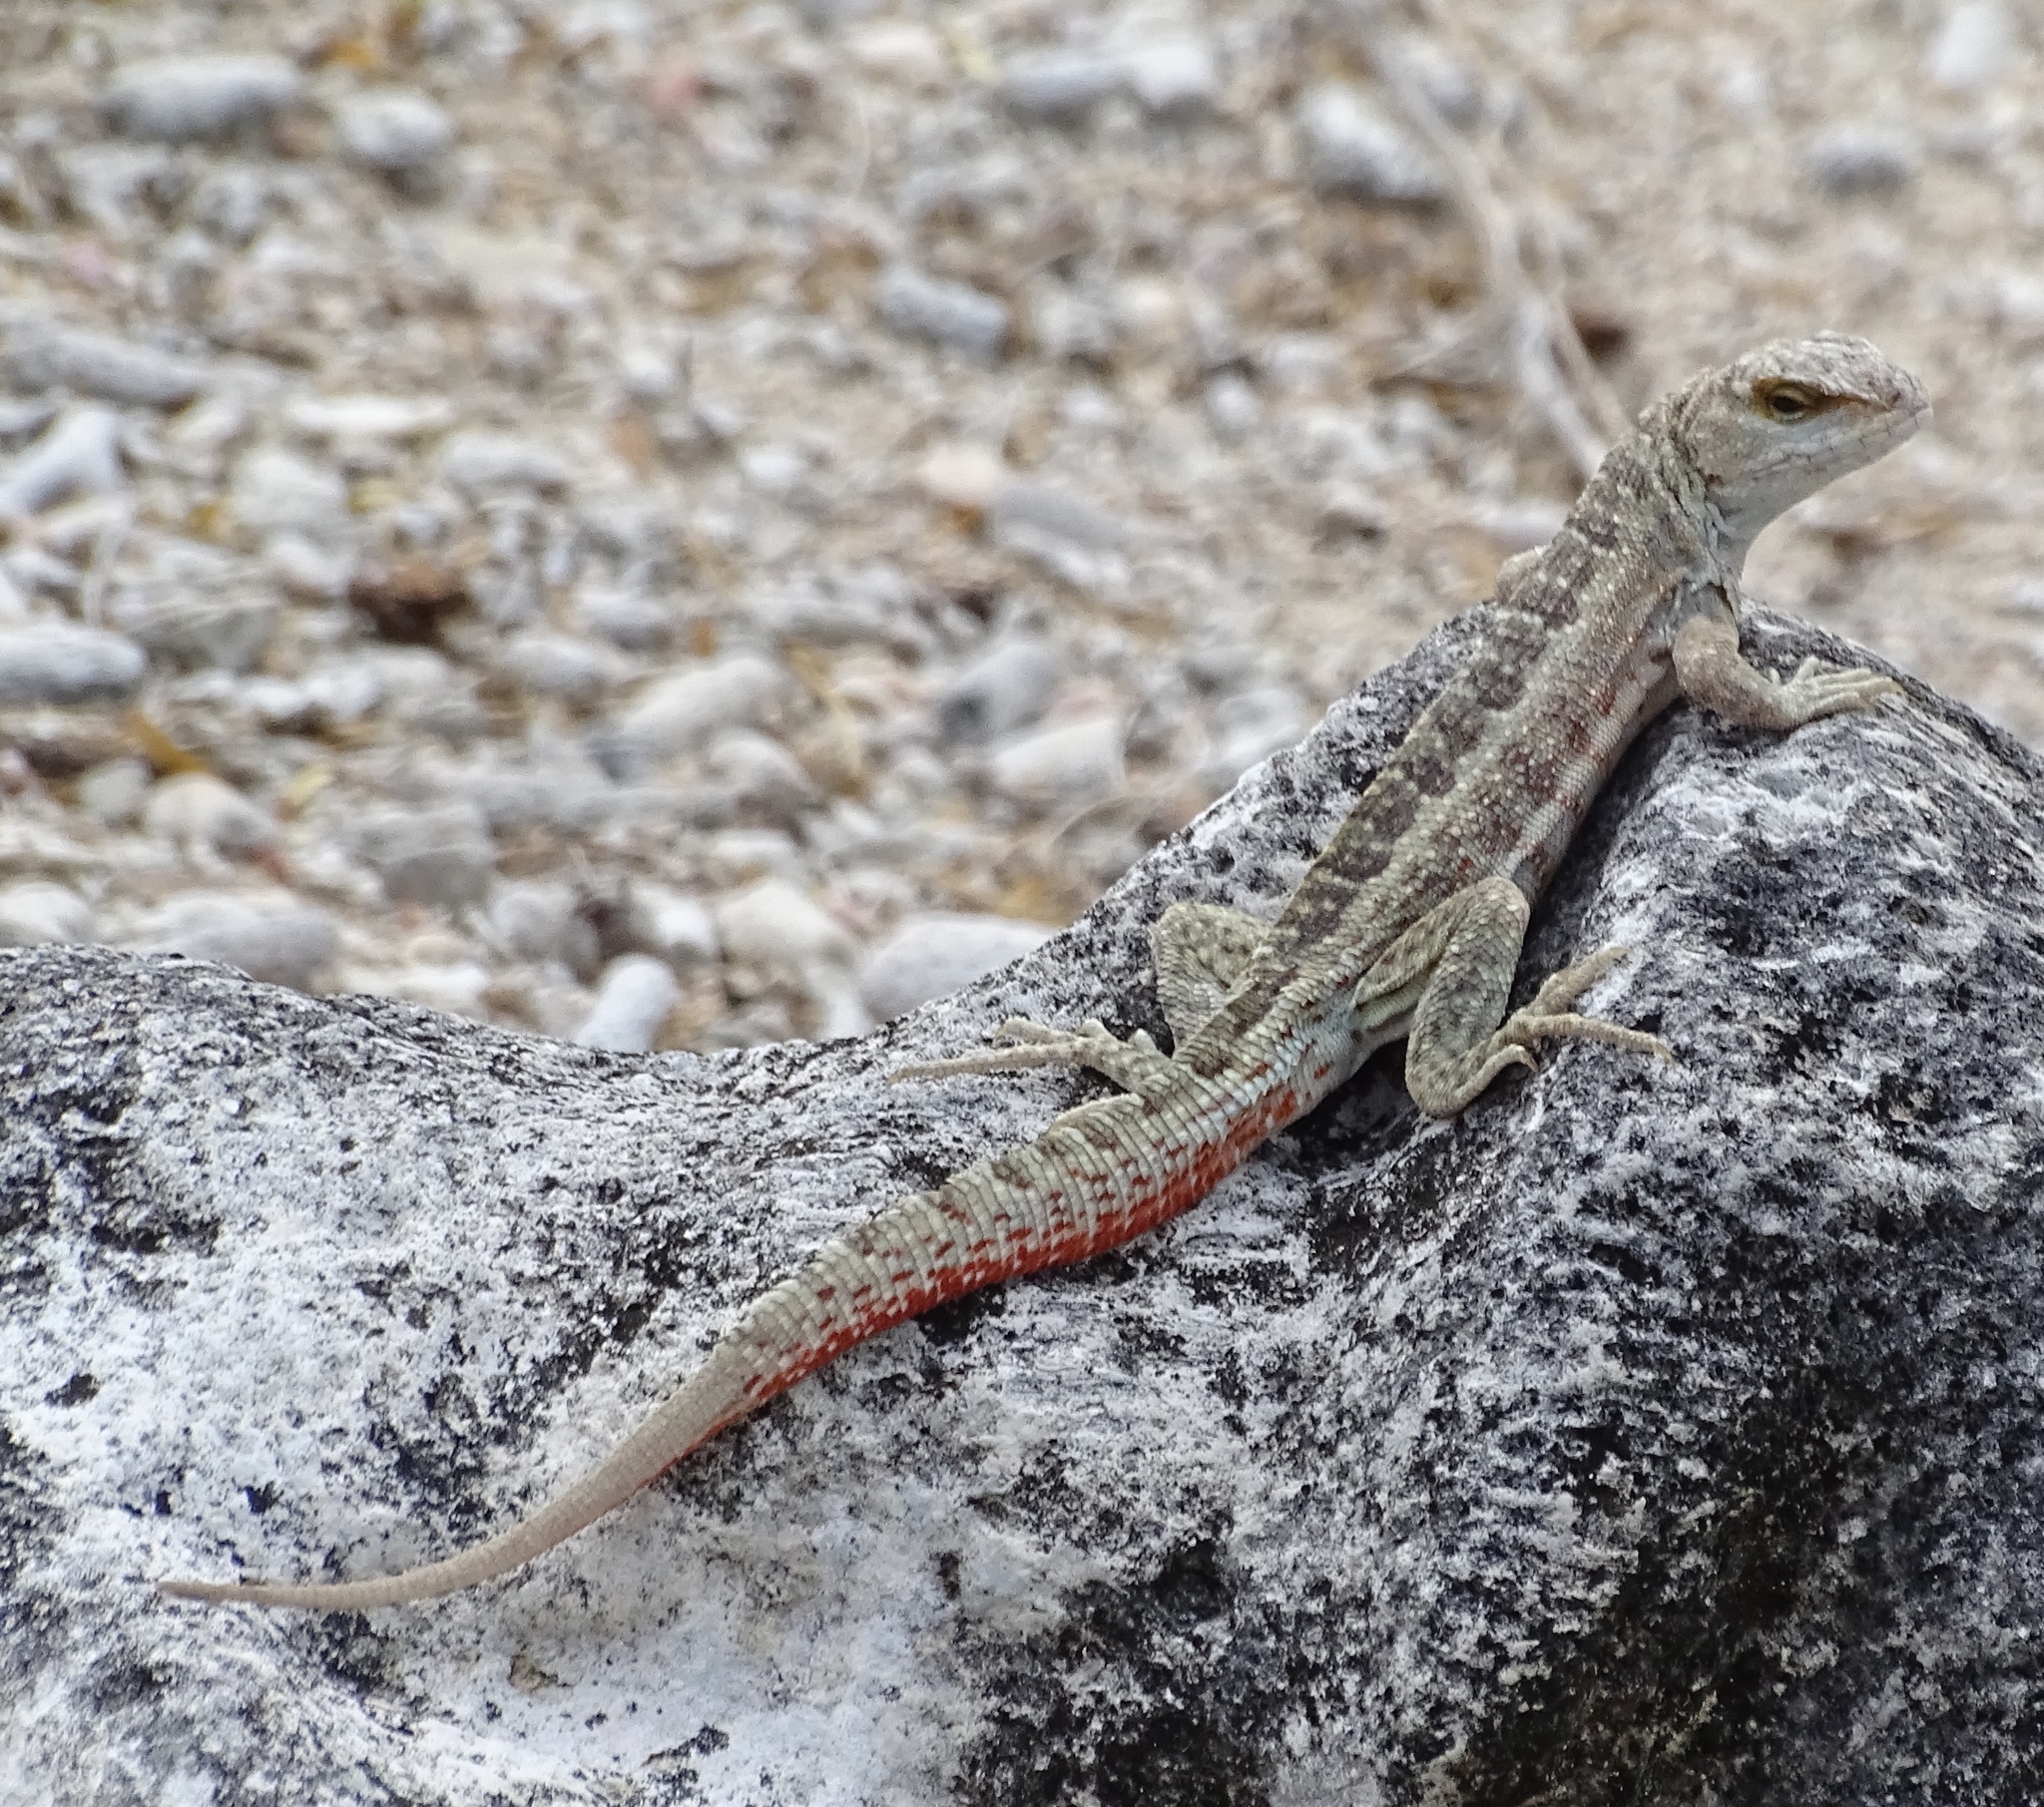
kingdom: Animalia
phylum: Chordata
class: Squamata
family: Leiocephalidae
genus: Leiocephalus
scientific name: Leiocephalus schreibersii
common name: Red-sided curly-tailed lizard
